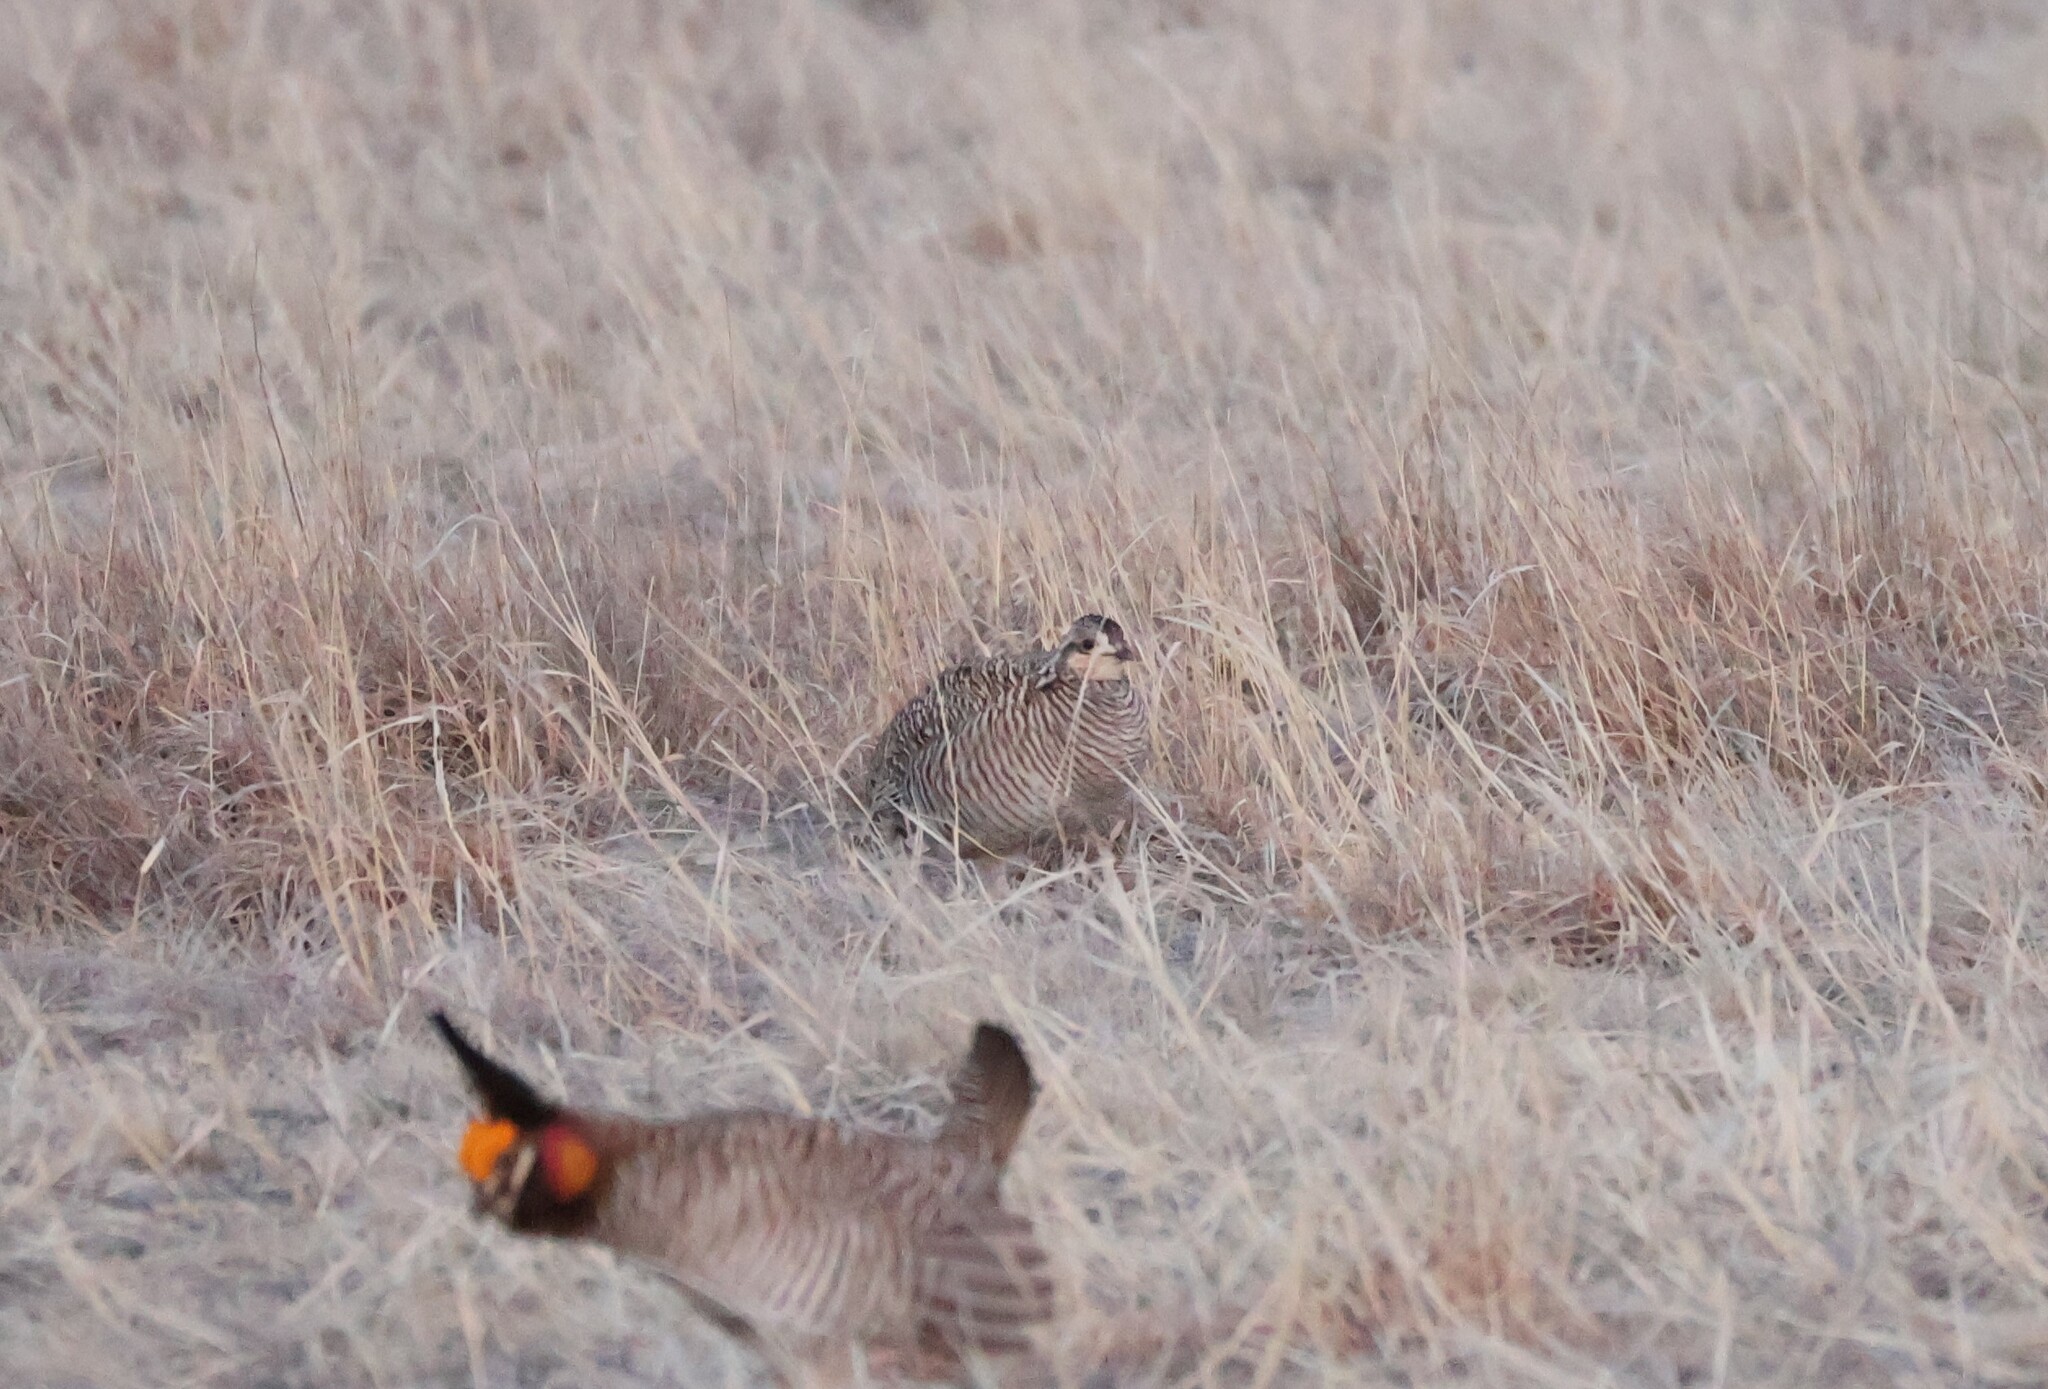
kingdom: Animalia
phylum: Chordata
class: Aves
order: Galliformes
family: Phasianidae
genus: Tympanuchus
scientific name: Tympanuchus pallidicinctus
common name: Lesser prairie chicken
